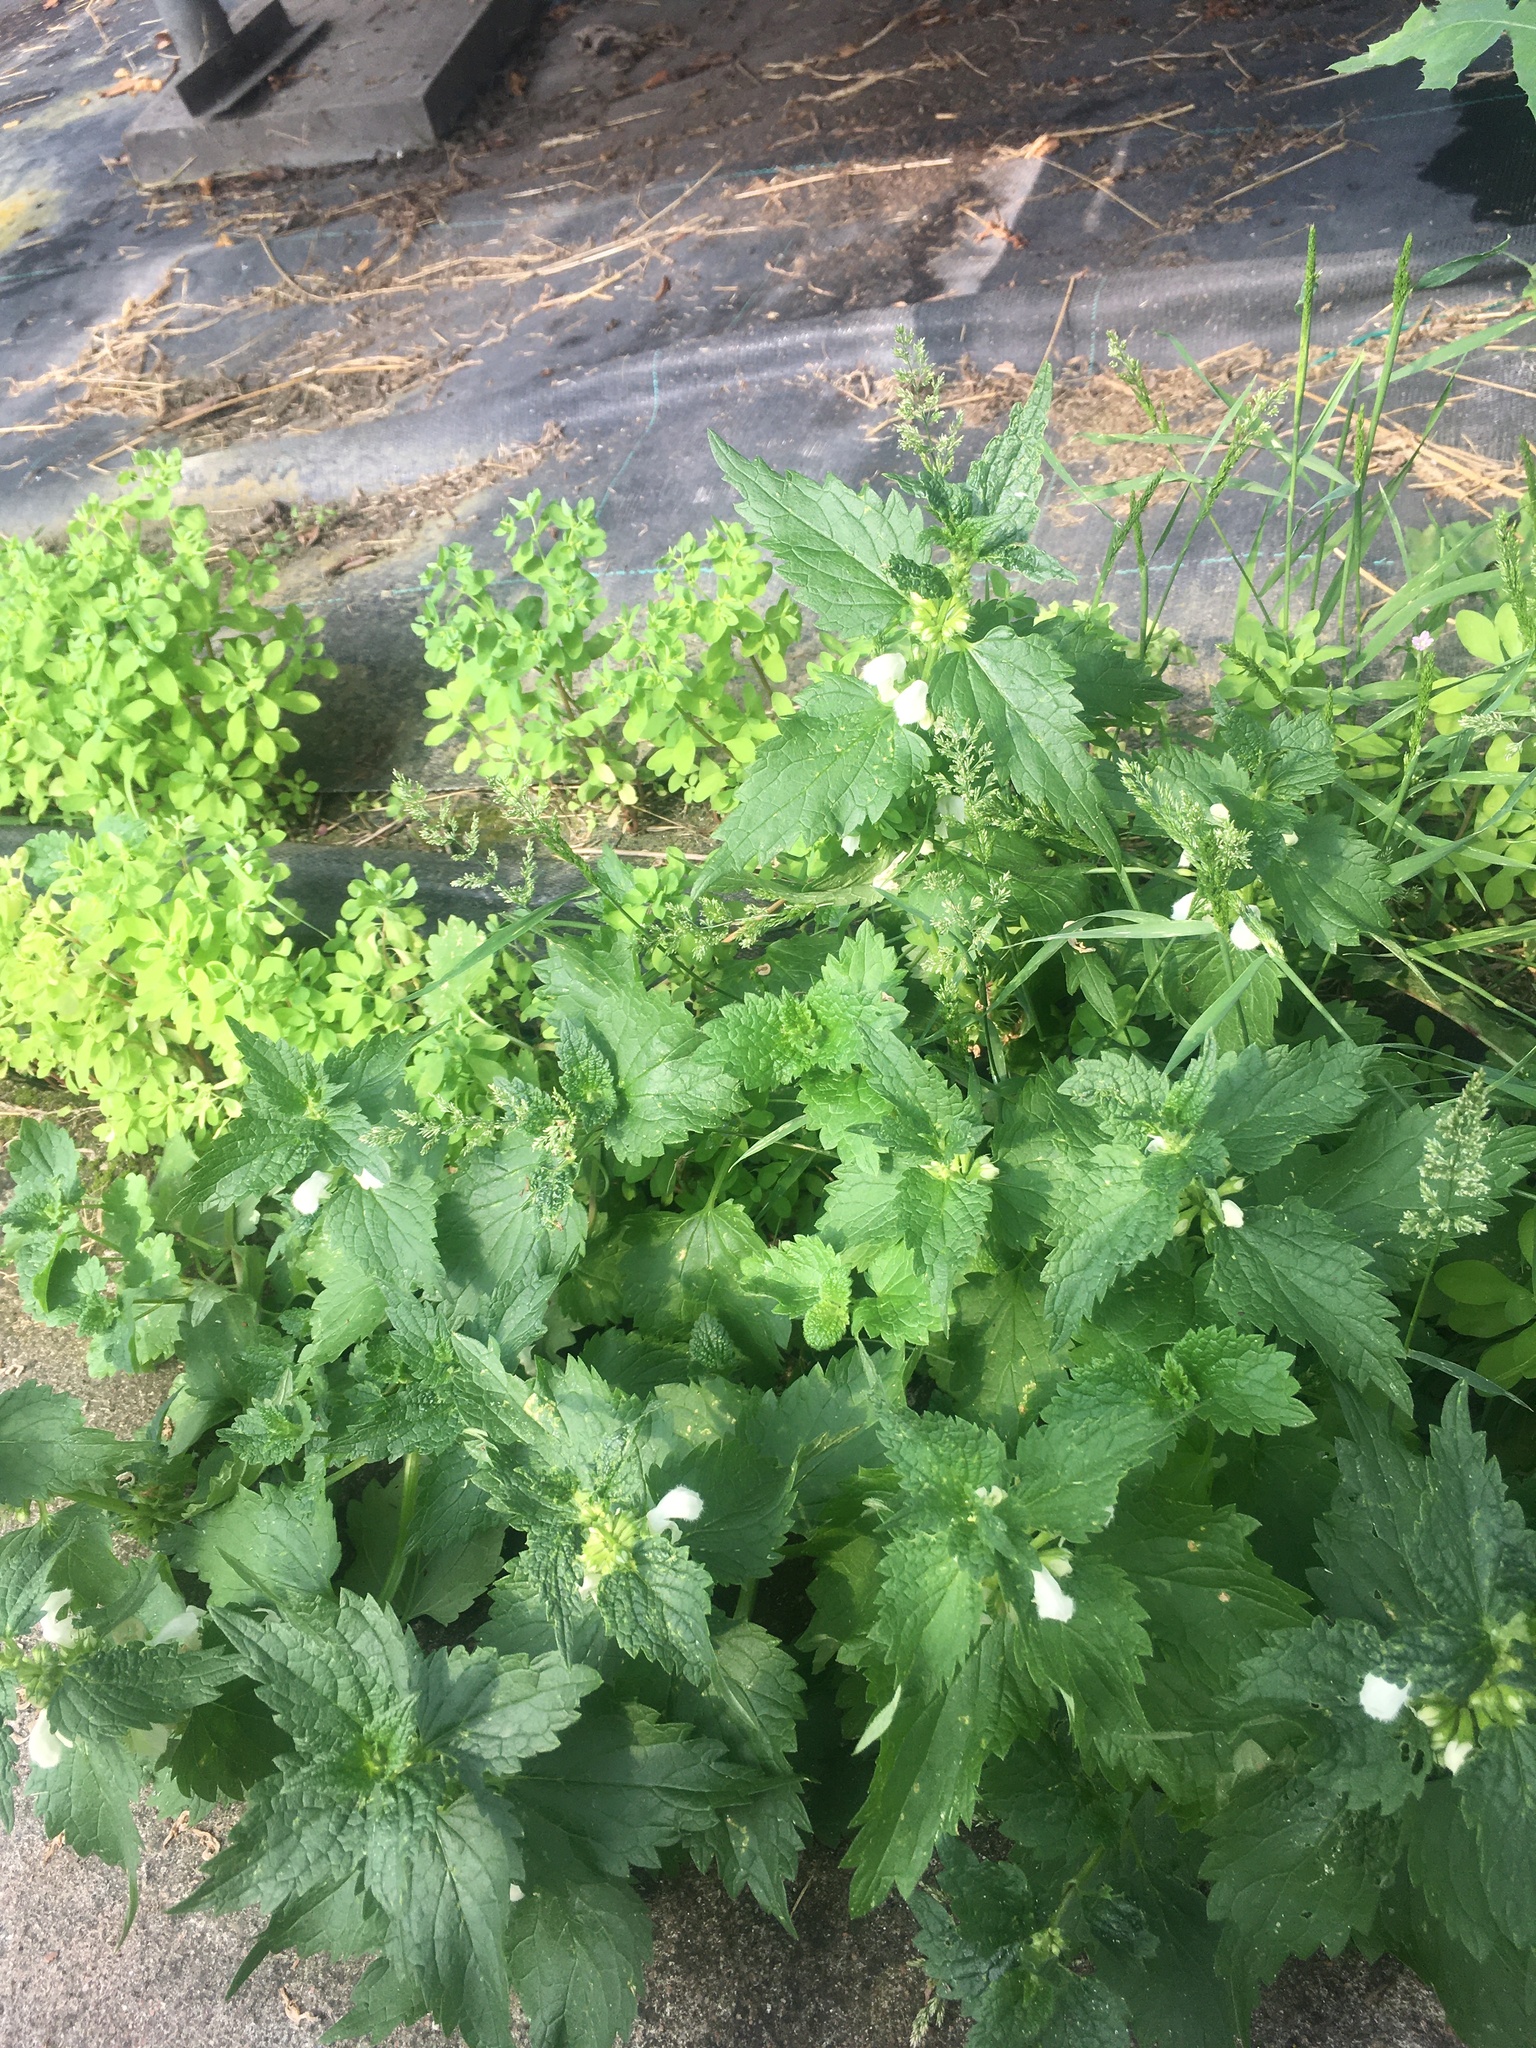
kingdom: Plantae
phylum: Tracheophyta
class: Magnoliopsida
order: Lamiales
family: Lamiaceae
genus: Lamium
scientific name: Lamium album
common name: White dead-nettle
